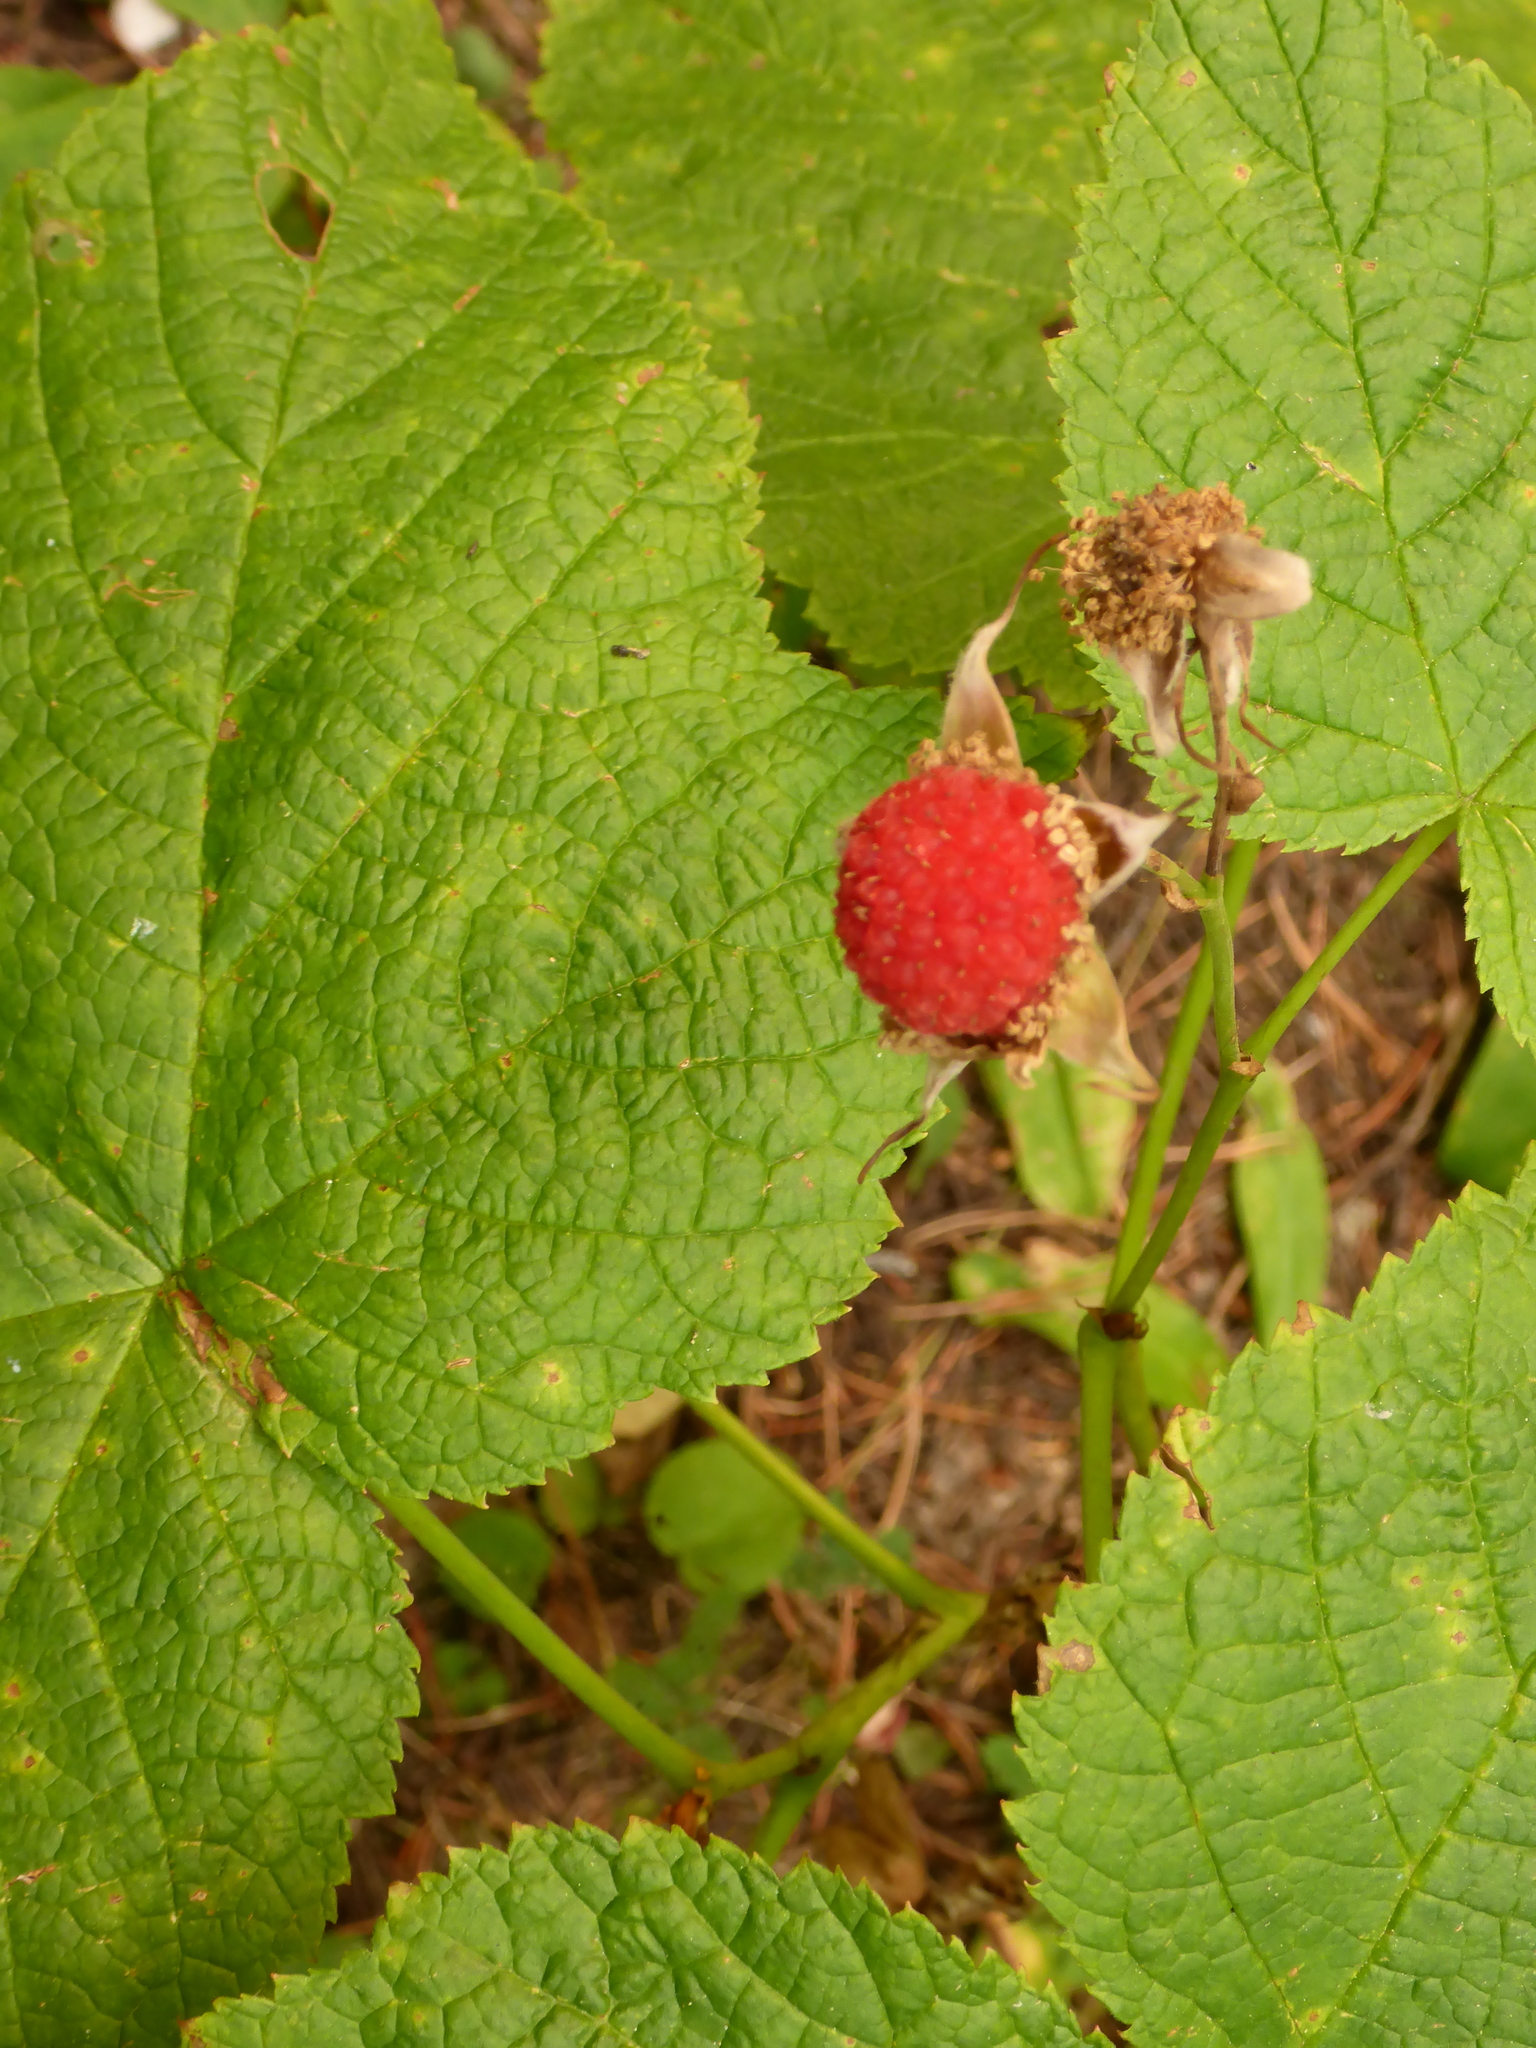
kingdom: Plantae
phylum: Tracheophyta
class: Magnoliopsida
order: Rosales
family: Rosaceae
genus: Rubus
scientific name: Rubus parviflorus
